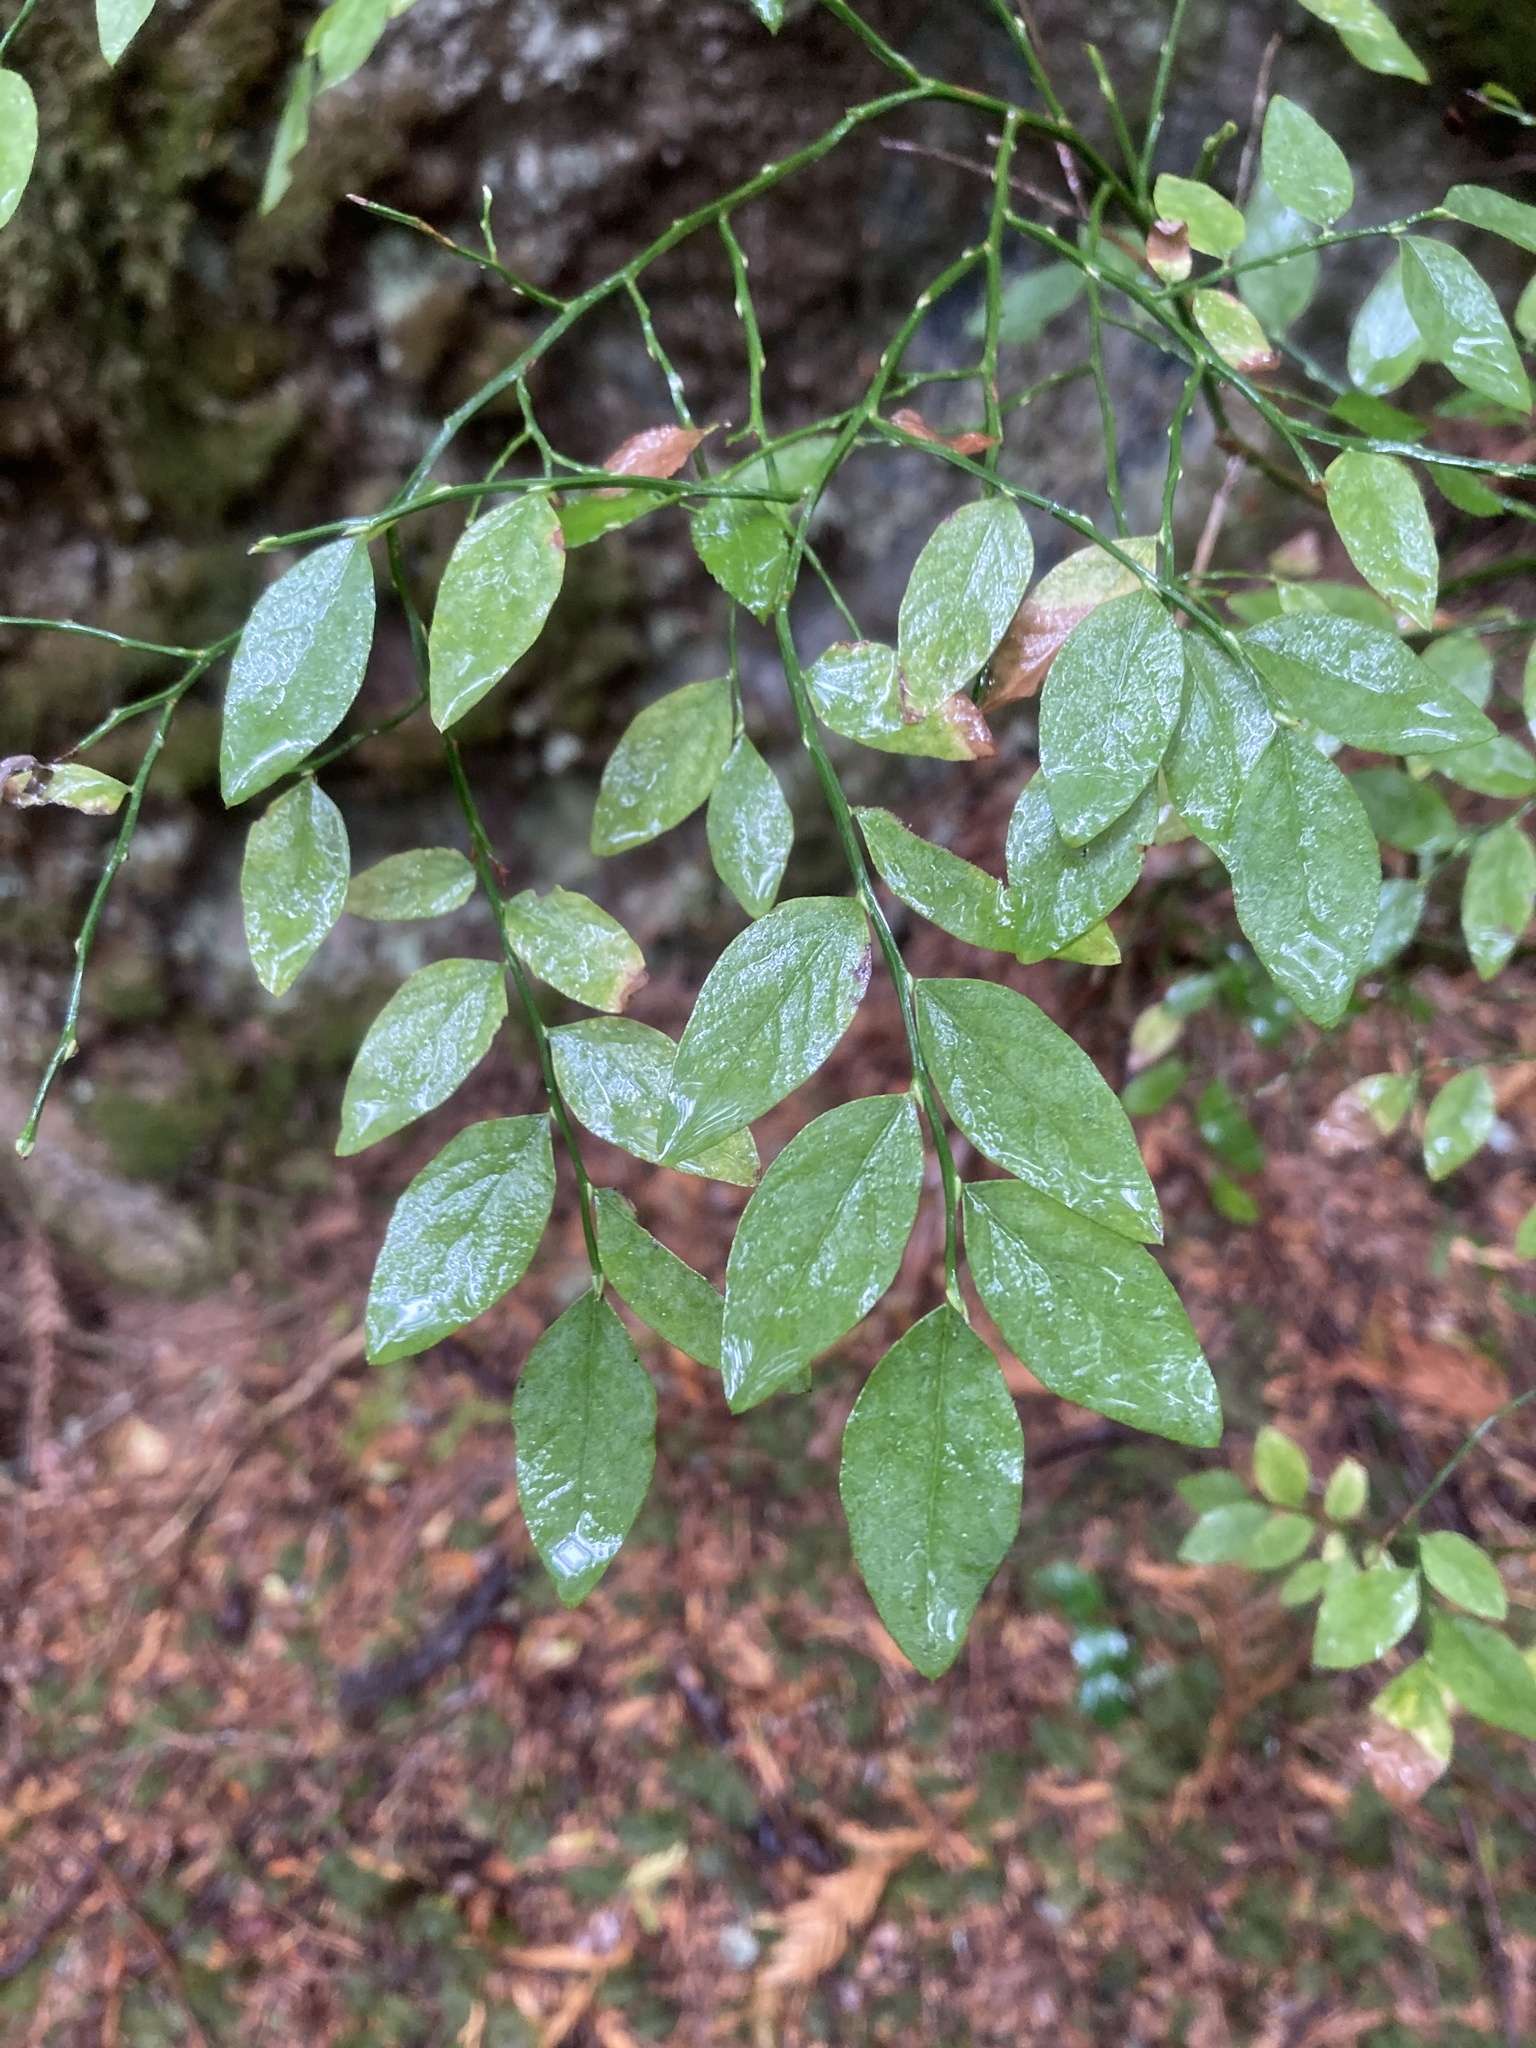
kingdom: Plantae
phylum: Tracheophyta
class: Magnoliopsida
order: Ericales
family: Ericaceae
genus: Vaccinium
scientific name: Vaccinium parvifolium
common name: Red-huckleberry
